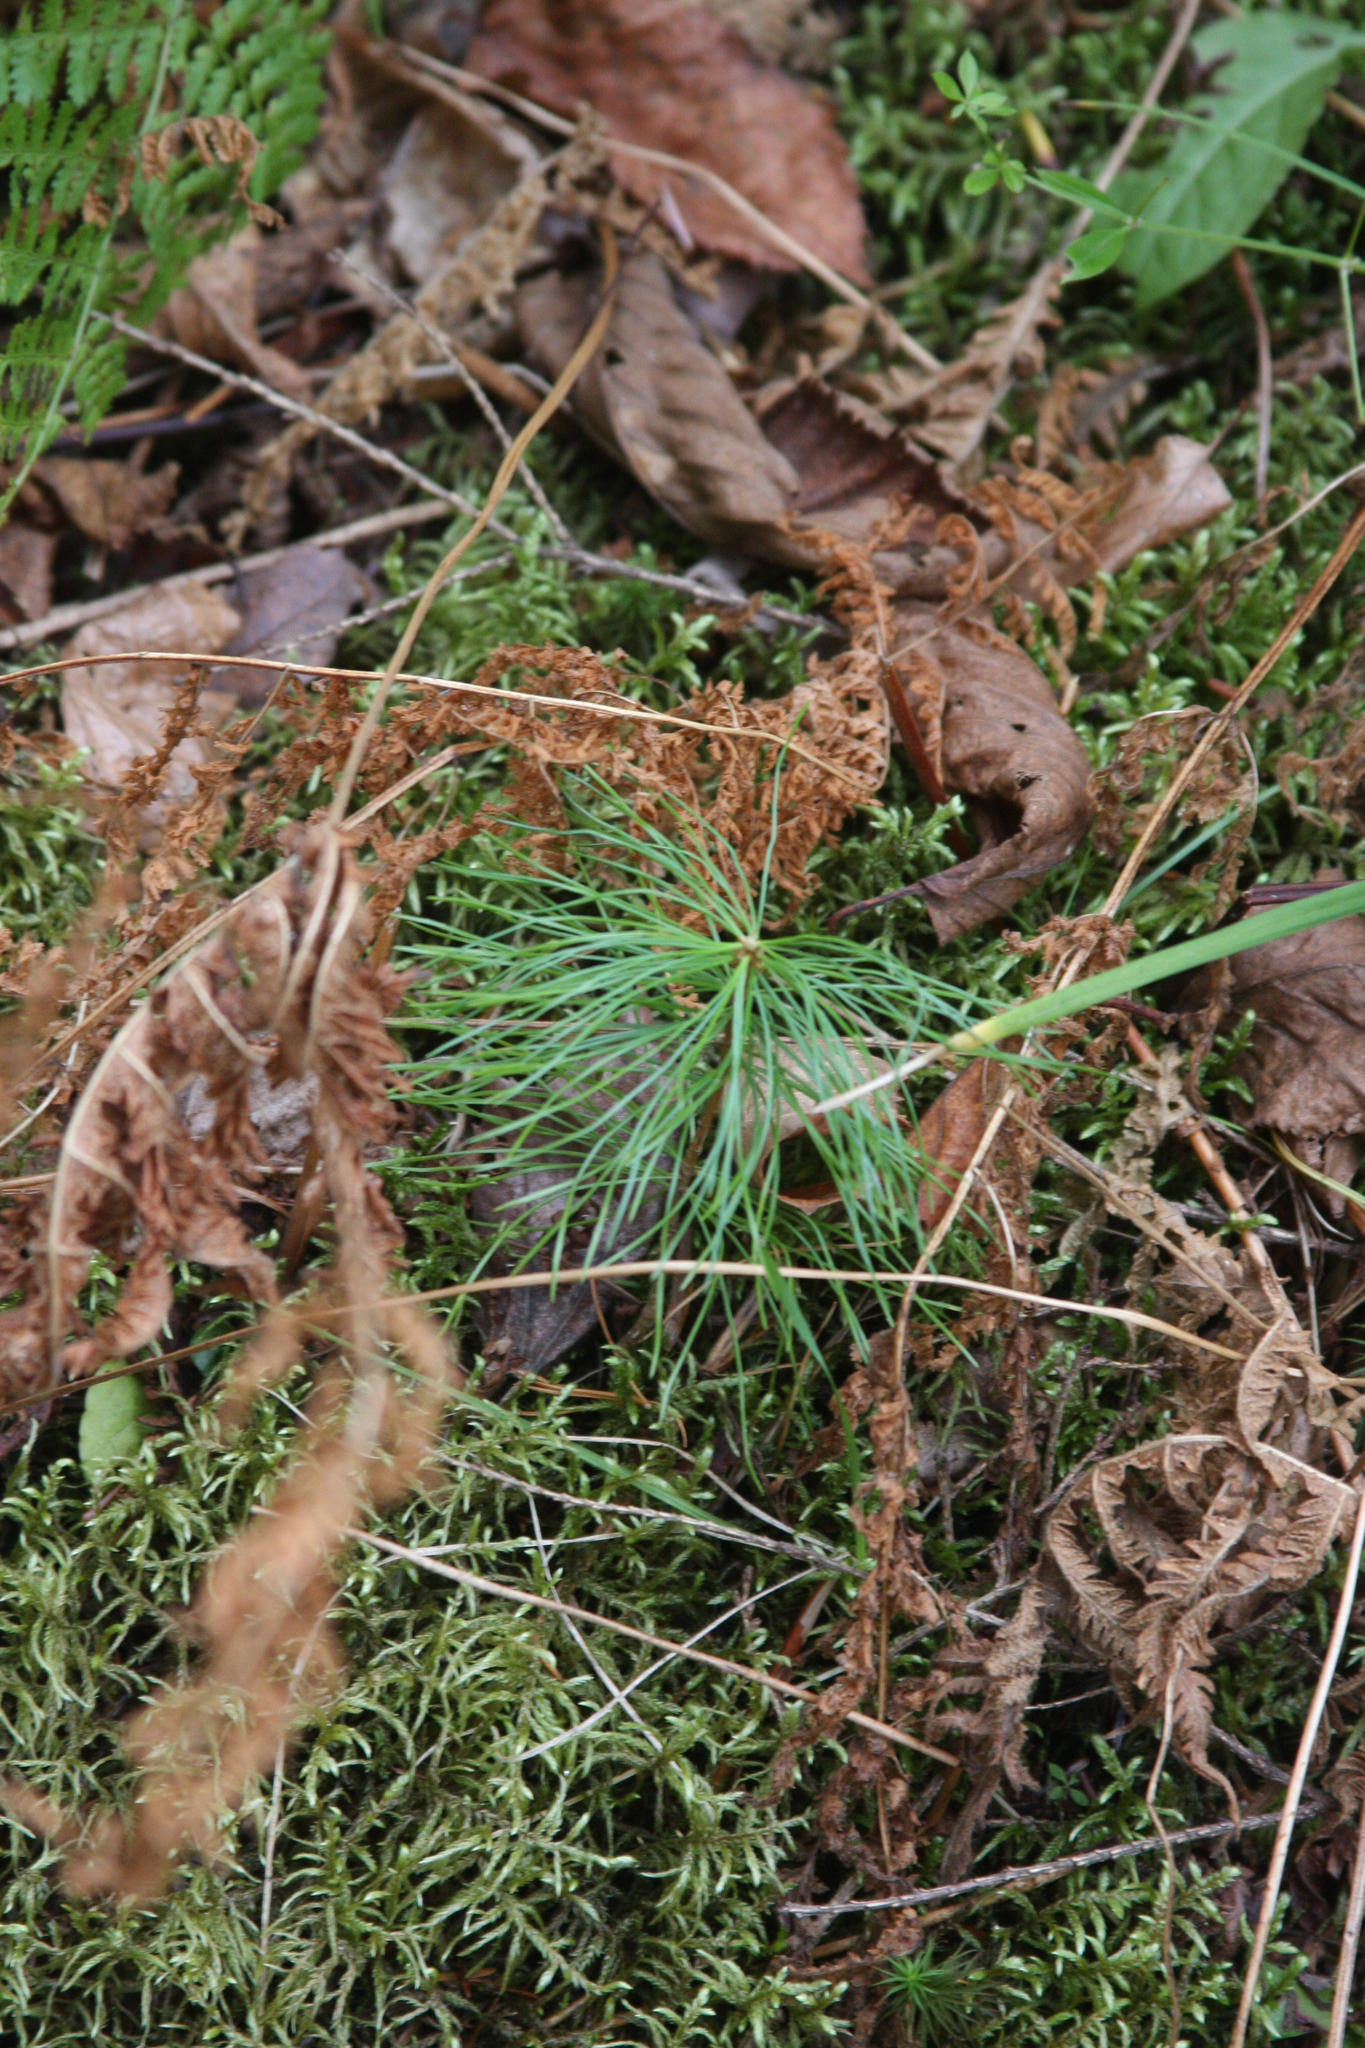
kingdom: Plantae
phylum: Tracheophyta
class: Pinopsida
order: Pinales
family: Pinaceae
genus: Pinus
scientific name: Pinus strobus
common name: Weymouth pine
